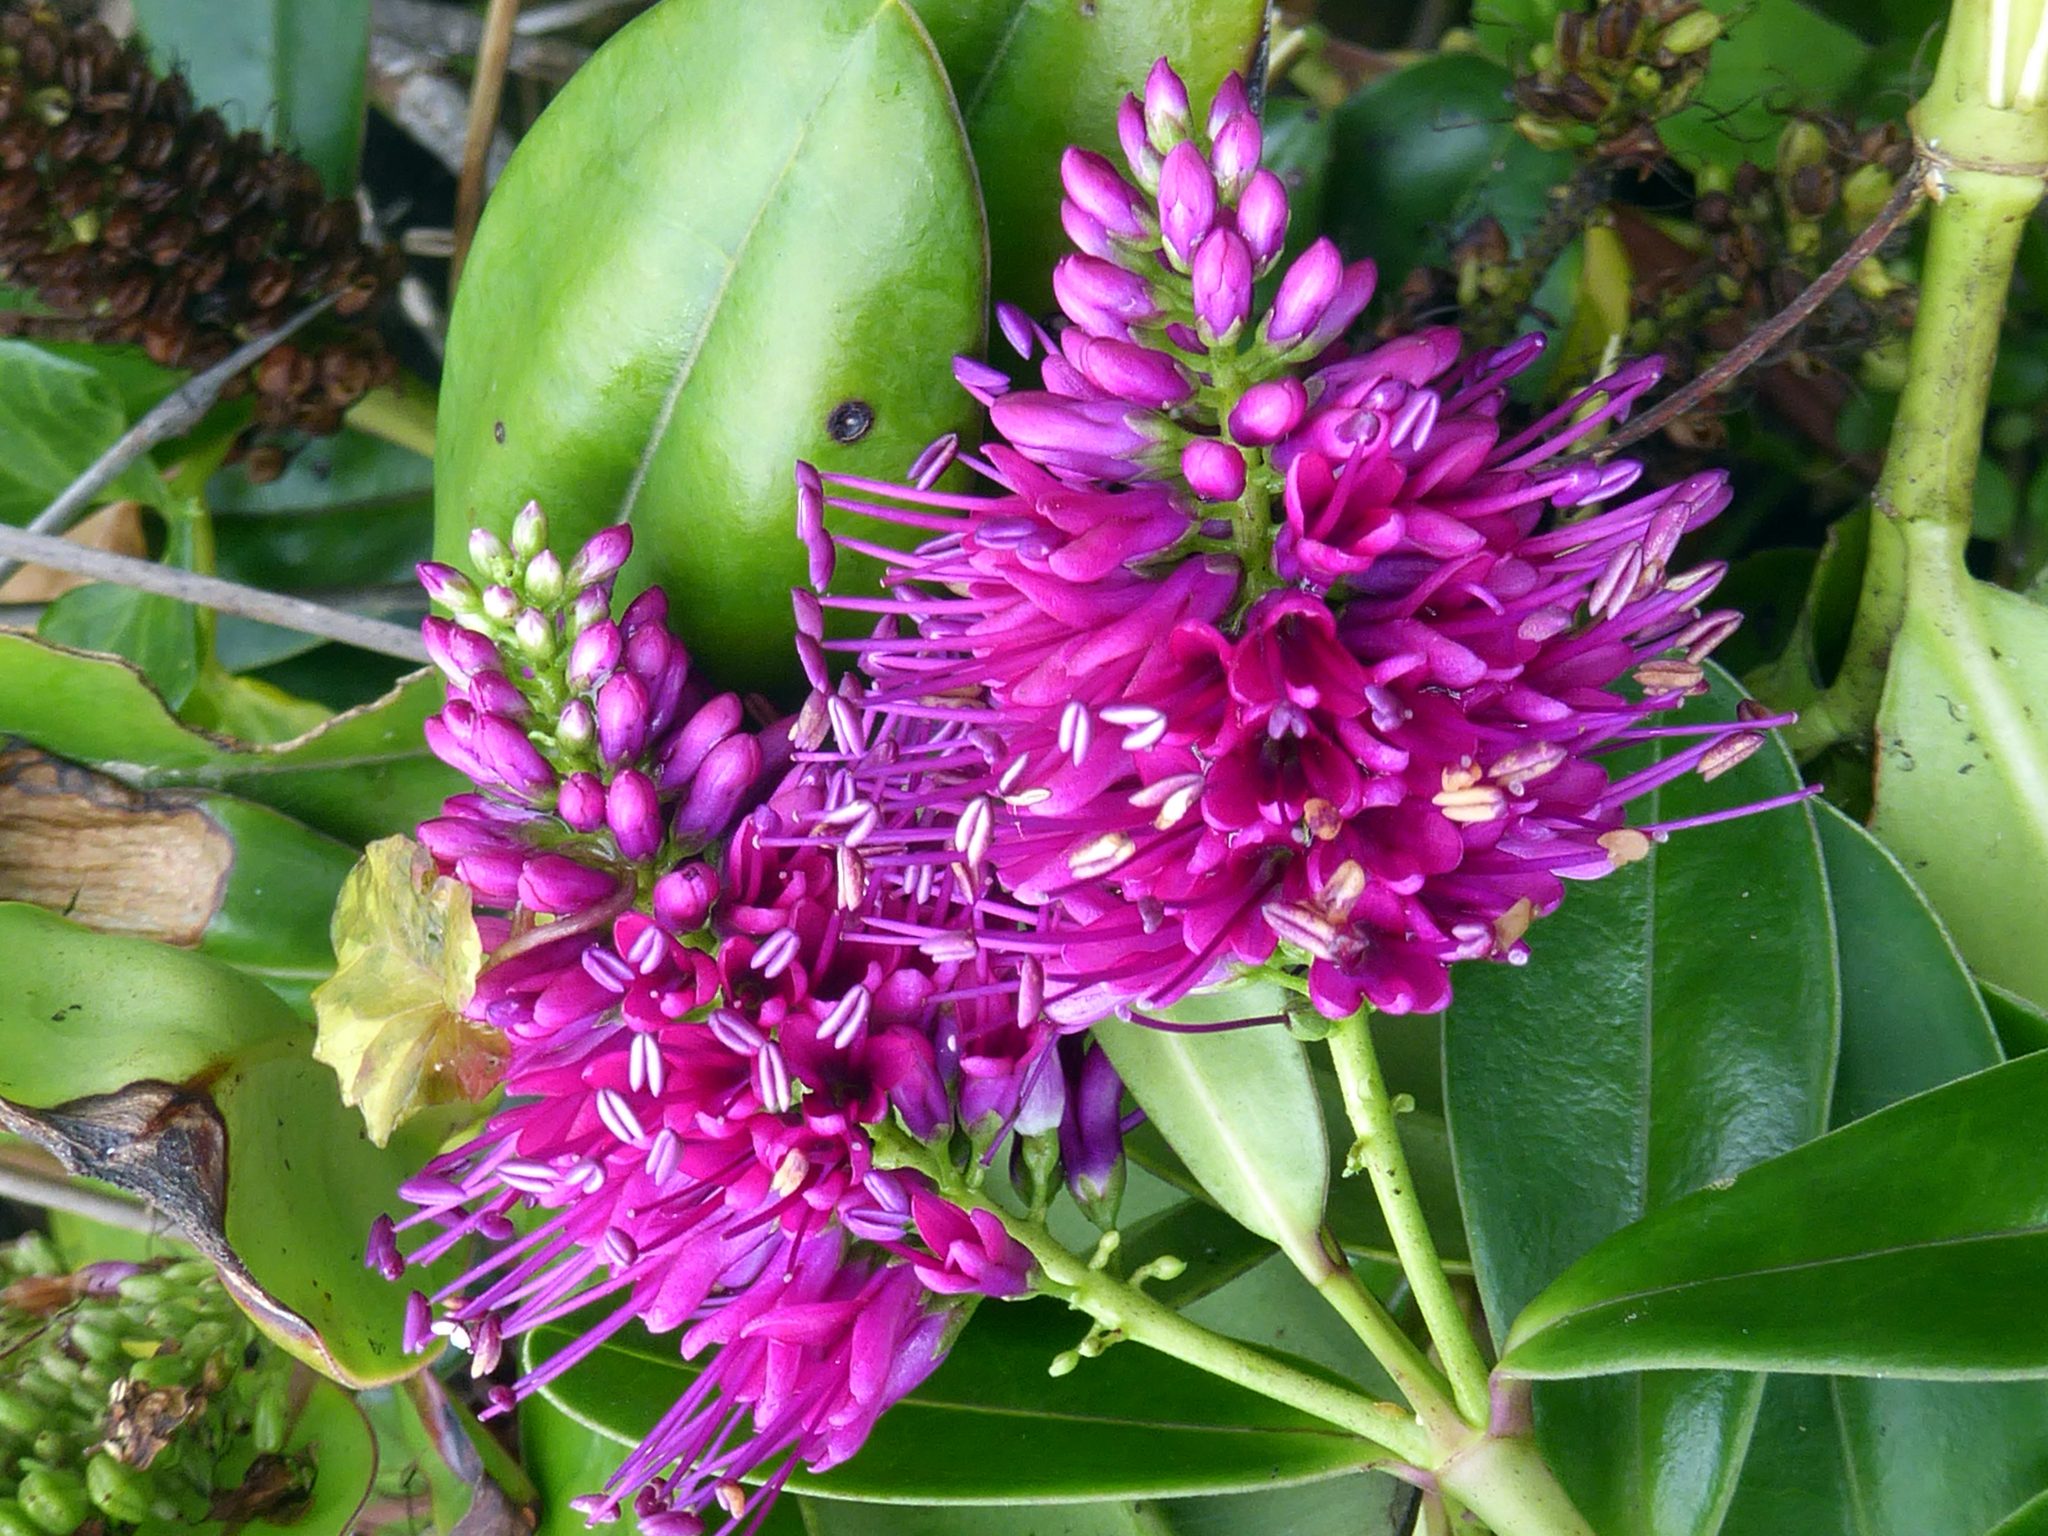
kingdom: Plantae
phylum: Tracheophyta
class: Magnoliopsida
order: Lamiales
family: Plantaginaceae
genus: Veronica
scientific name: Veronica speciosa
